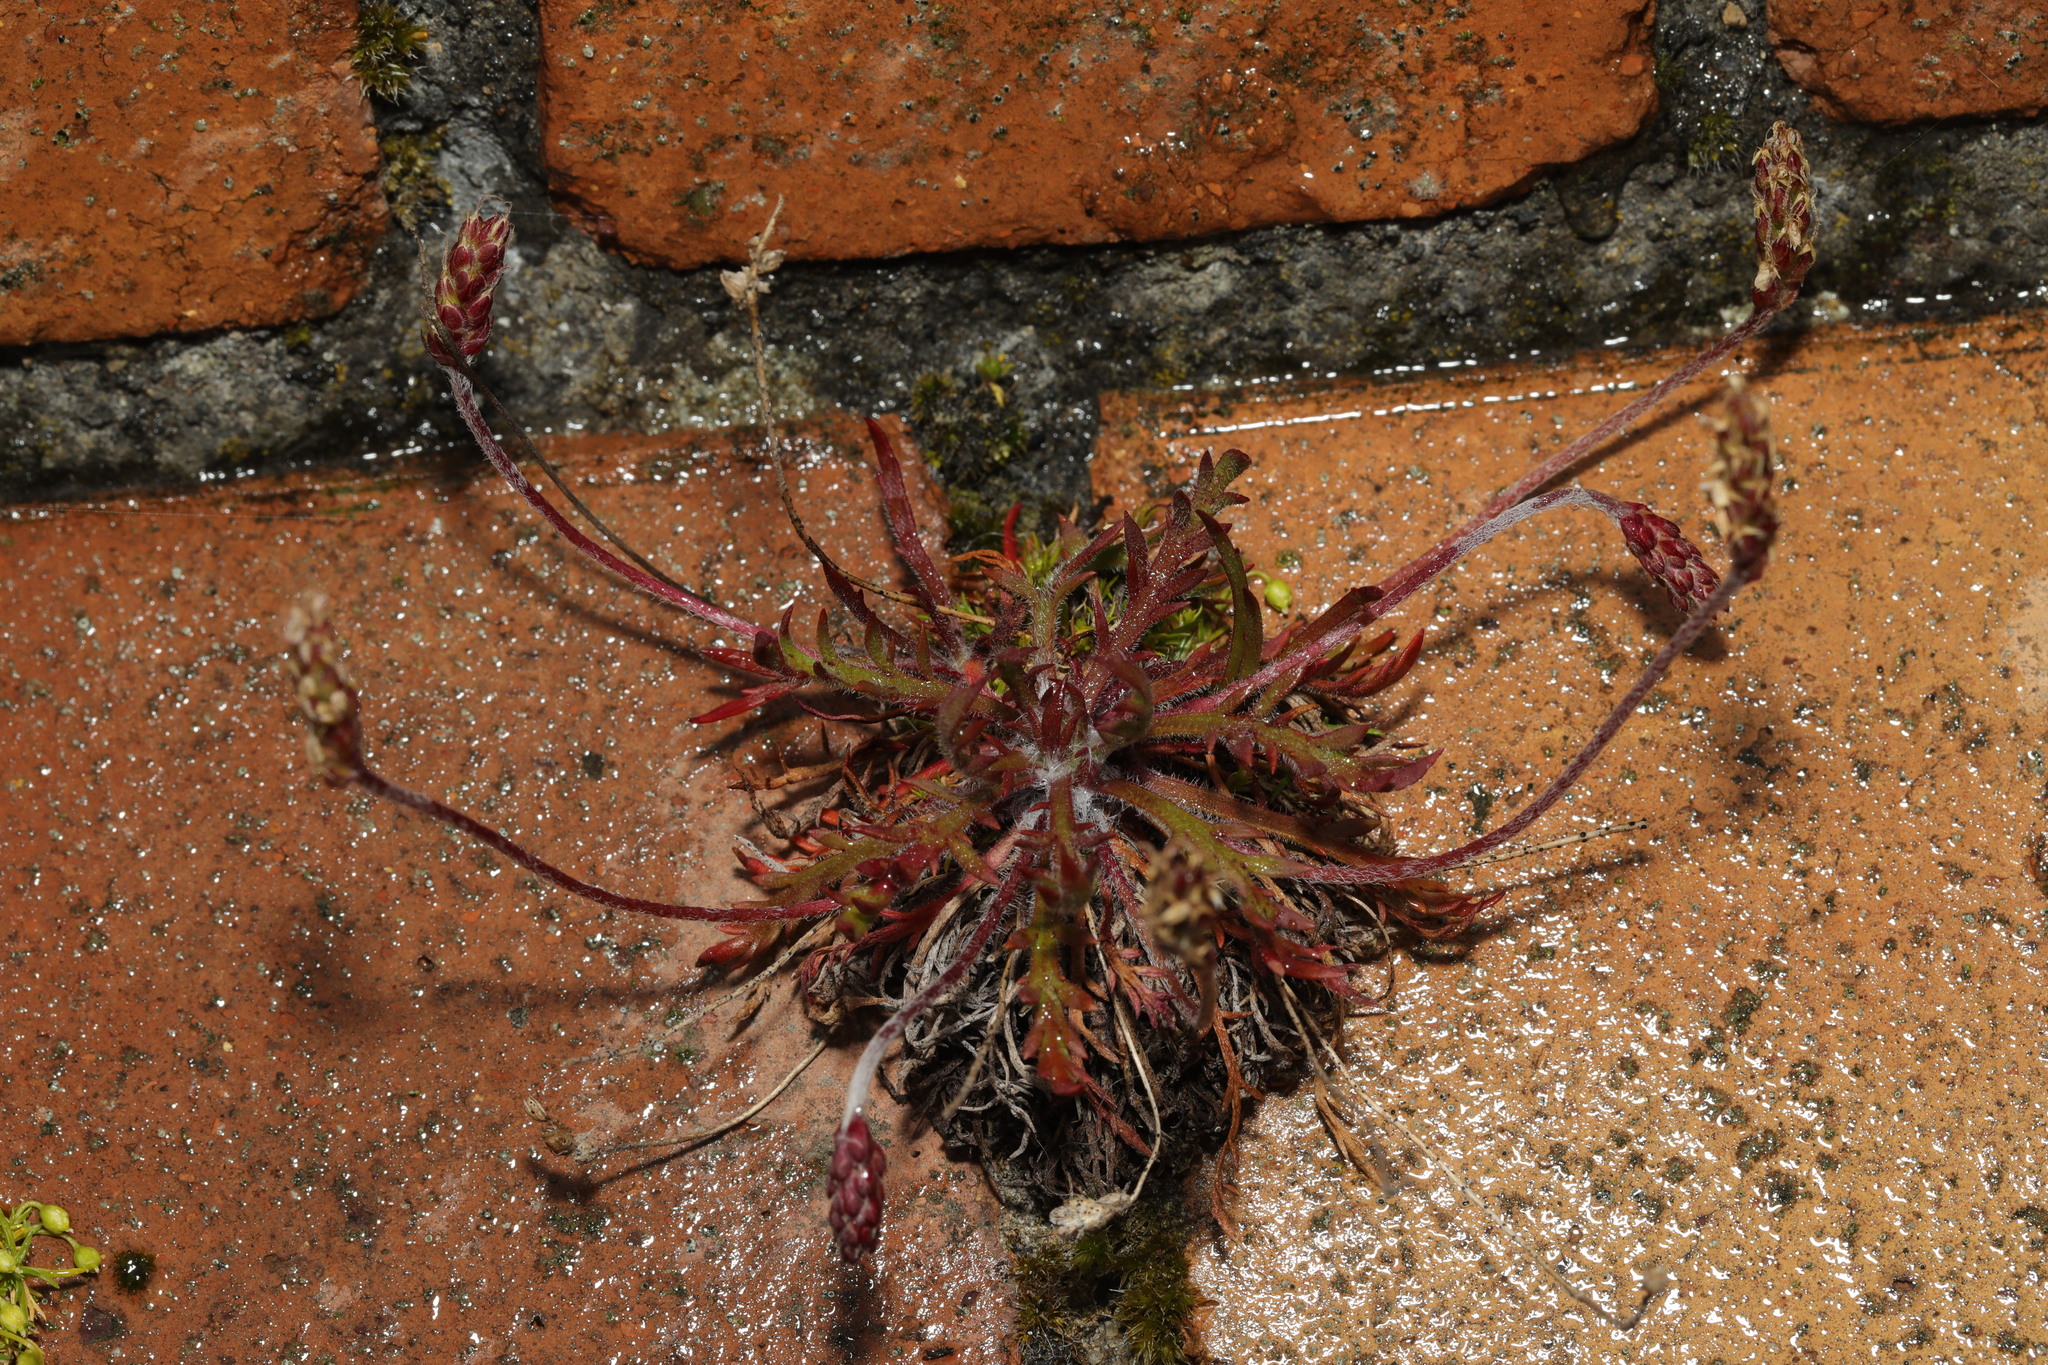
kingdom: Plantae
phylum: Tracheophyta
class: Magnoliopsida
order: Lamiales
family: Plantaginaceae
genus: Plantago
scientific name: Plantago coronopus
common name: Buck's-horn plantain
